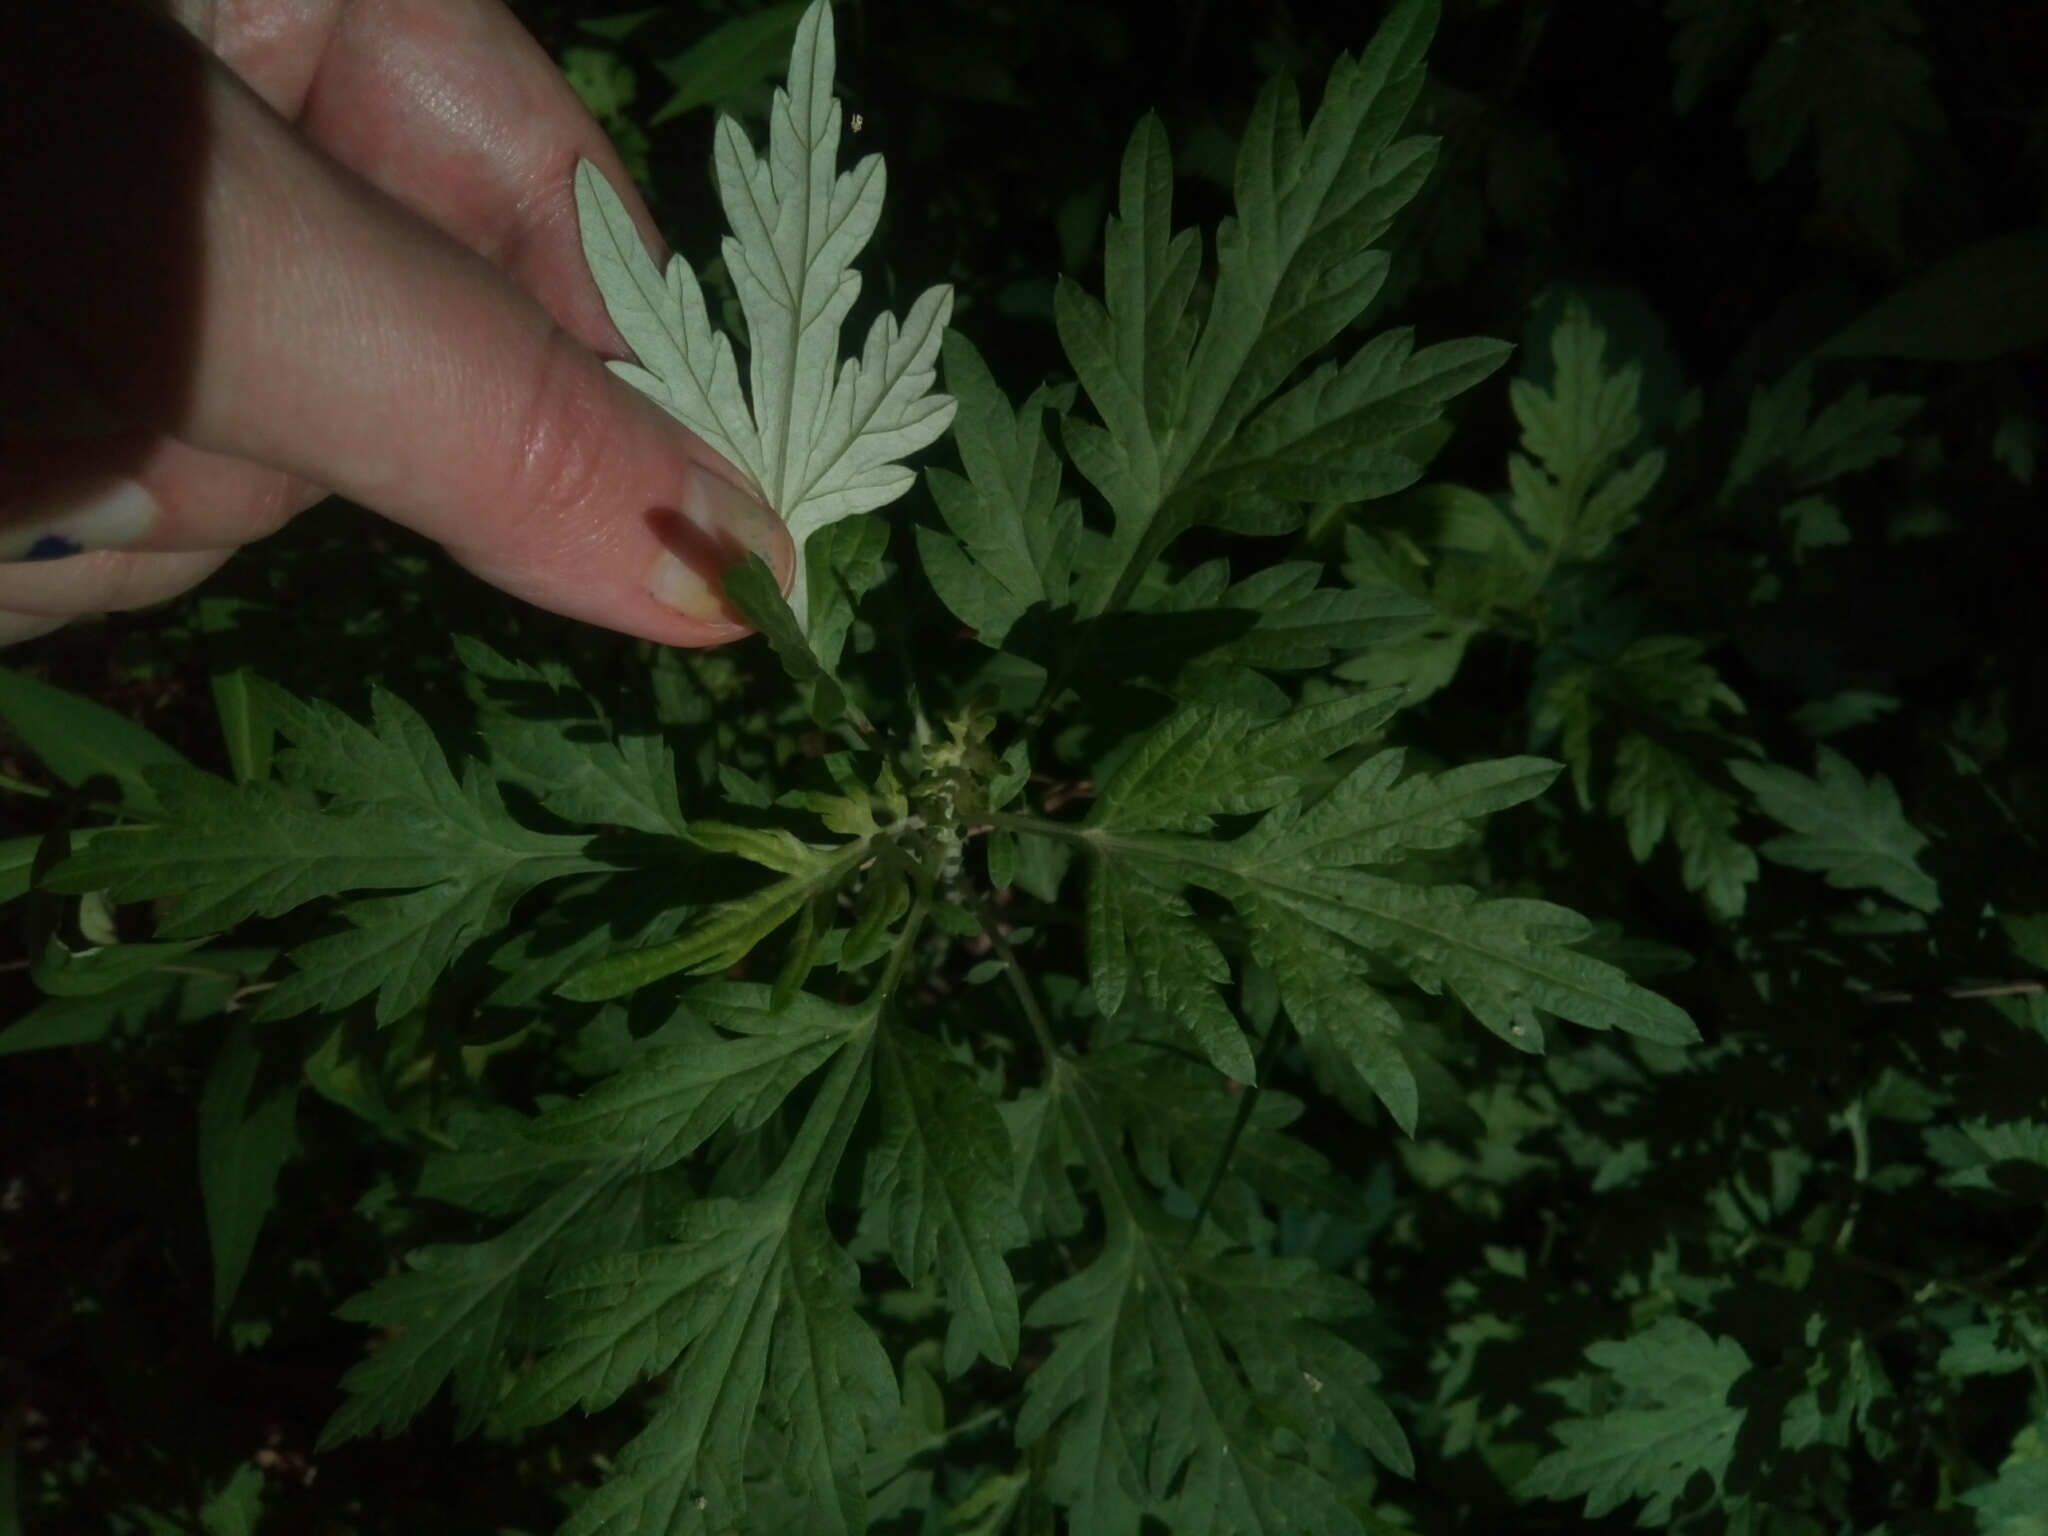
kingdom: Plantae
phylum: Tracheophyta
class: Magnoliopsida
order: Asterales
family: Asteraceae
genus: Artemisia
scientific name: Artemisia vulgaris
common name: Mugwort
